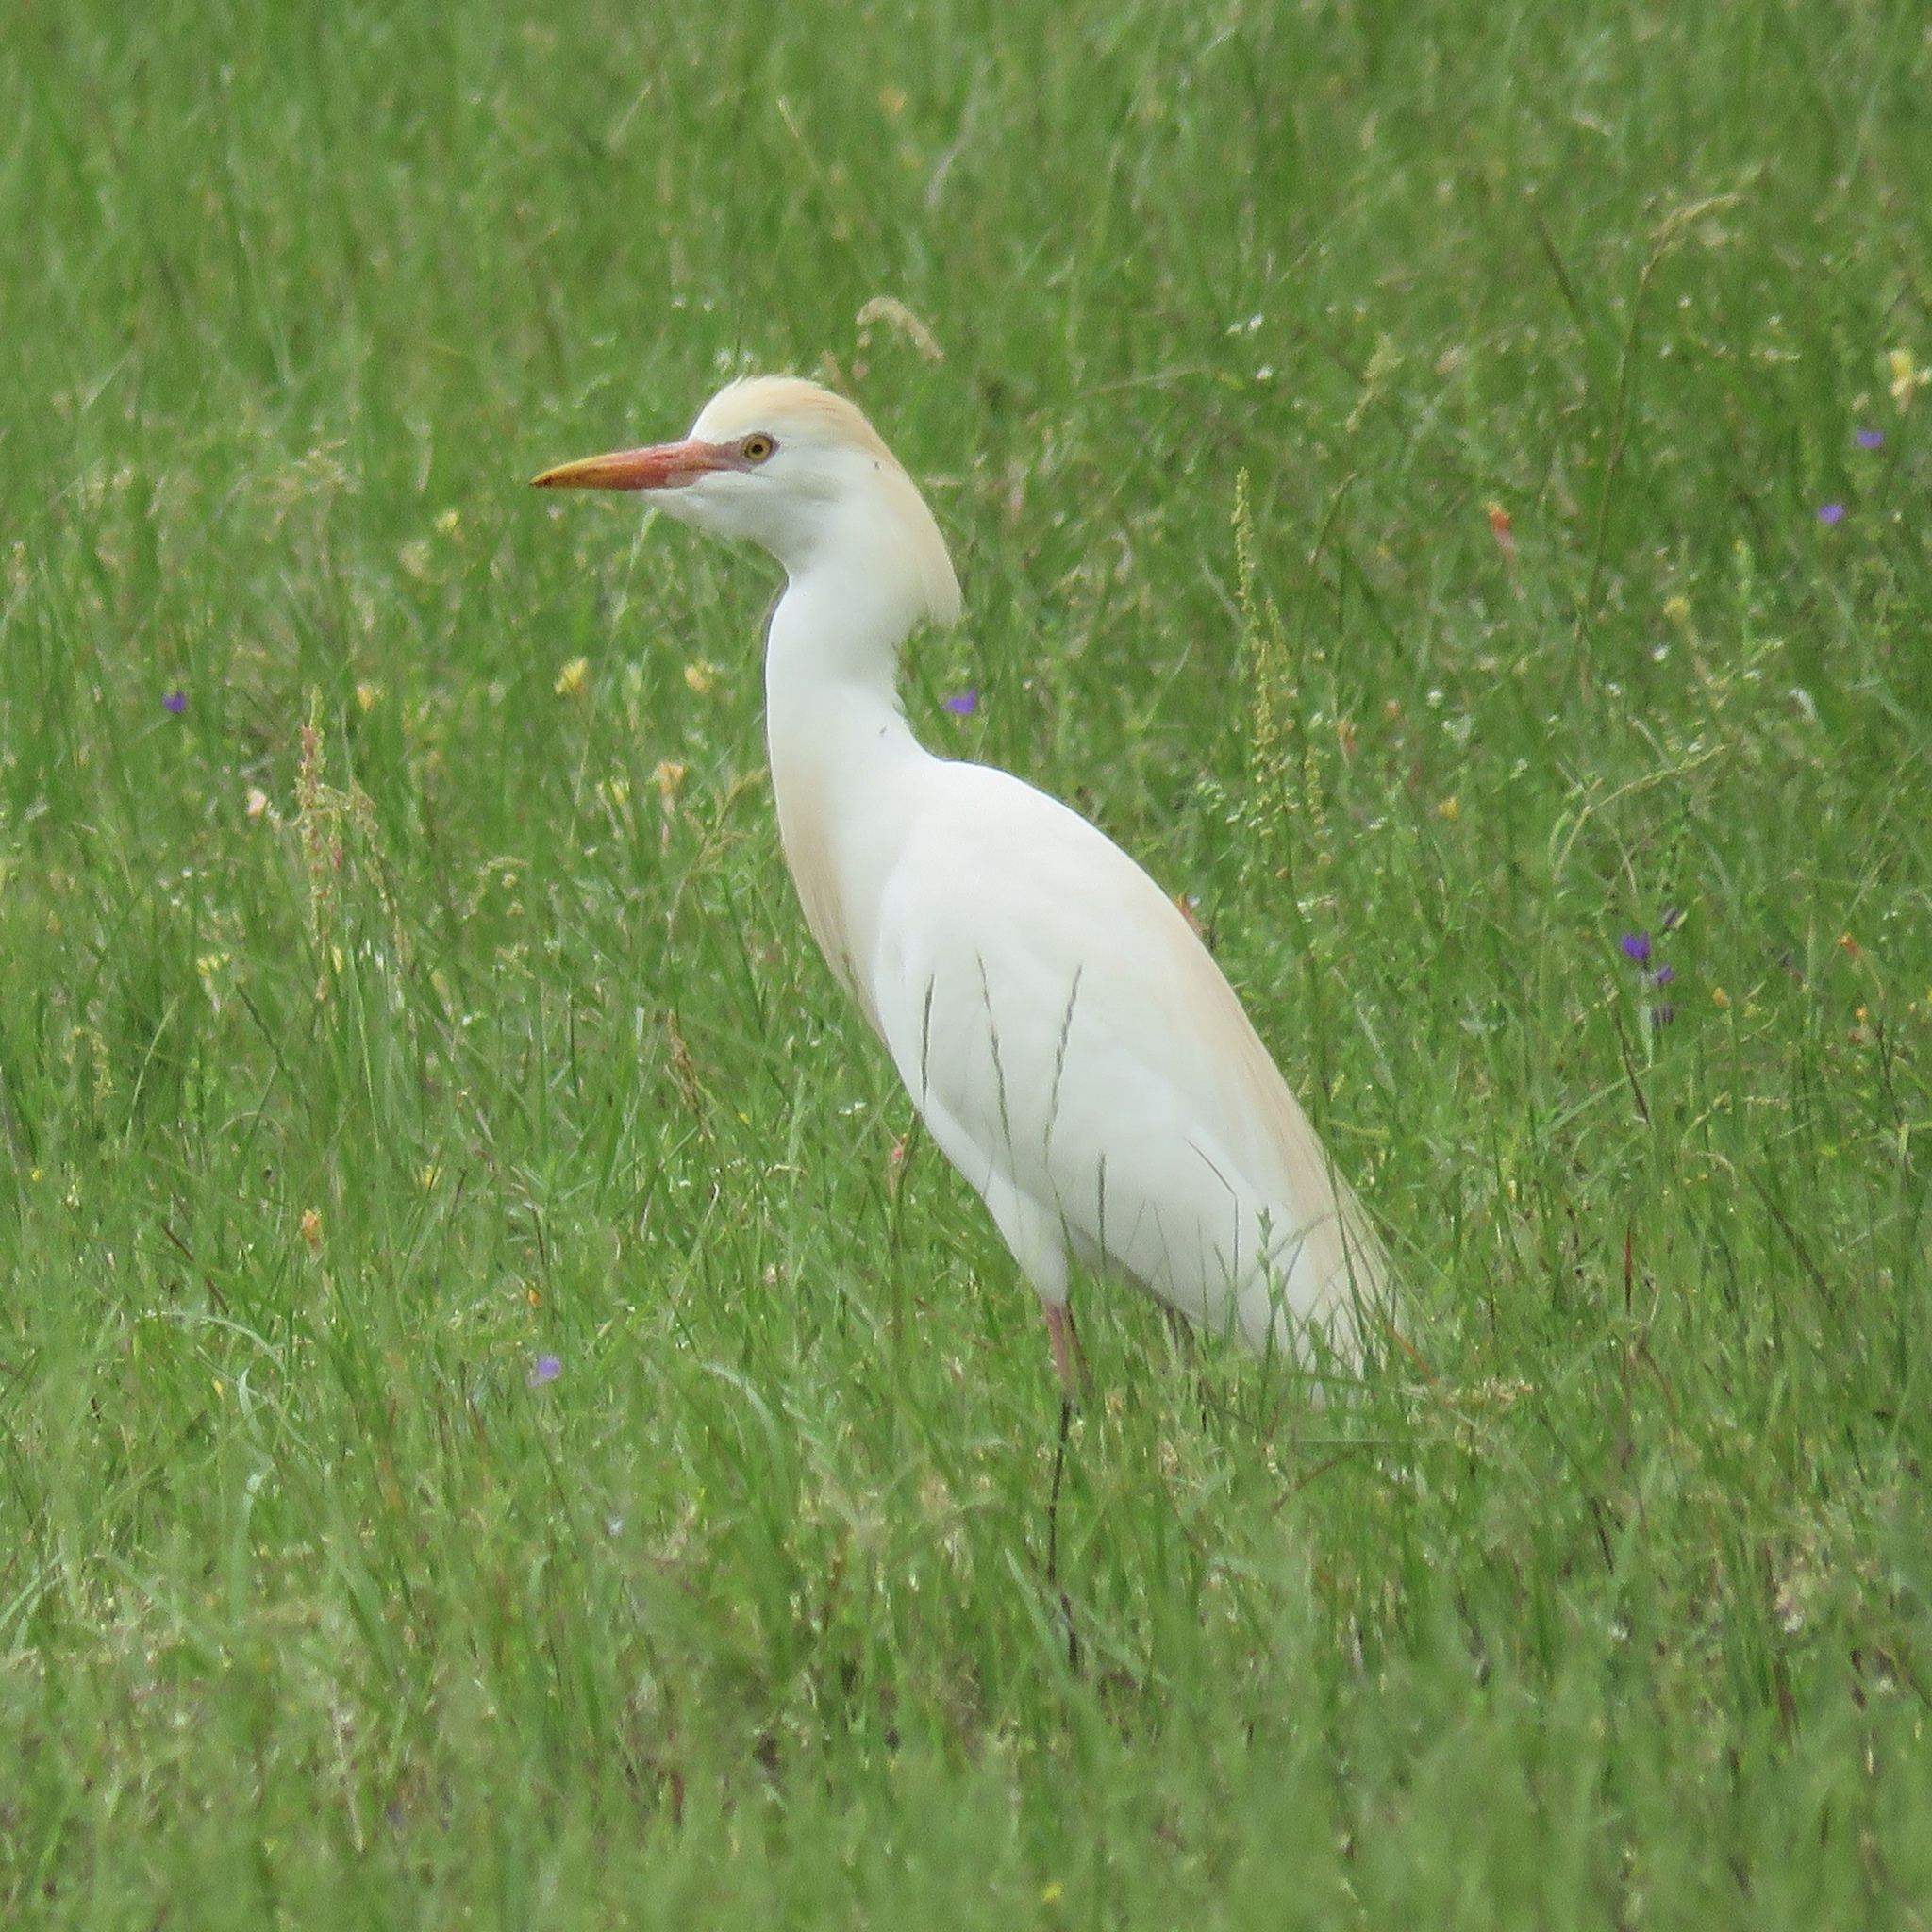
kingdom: Animalia
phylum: Chordata
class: Aves
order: Pelecaniformes
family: Ardeidae
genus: Bubulcus
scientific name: Bubulcus ibis
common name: Cattle egret
